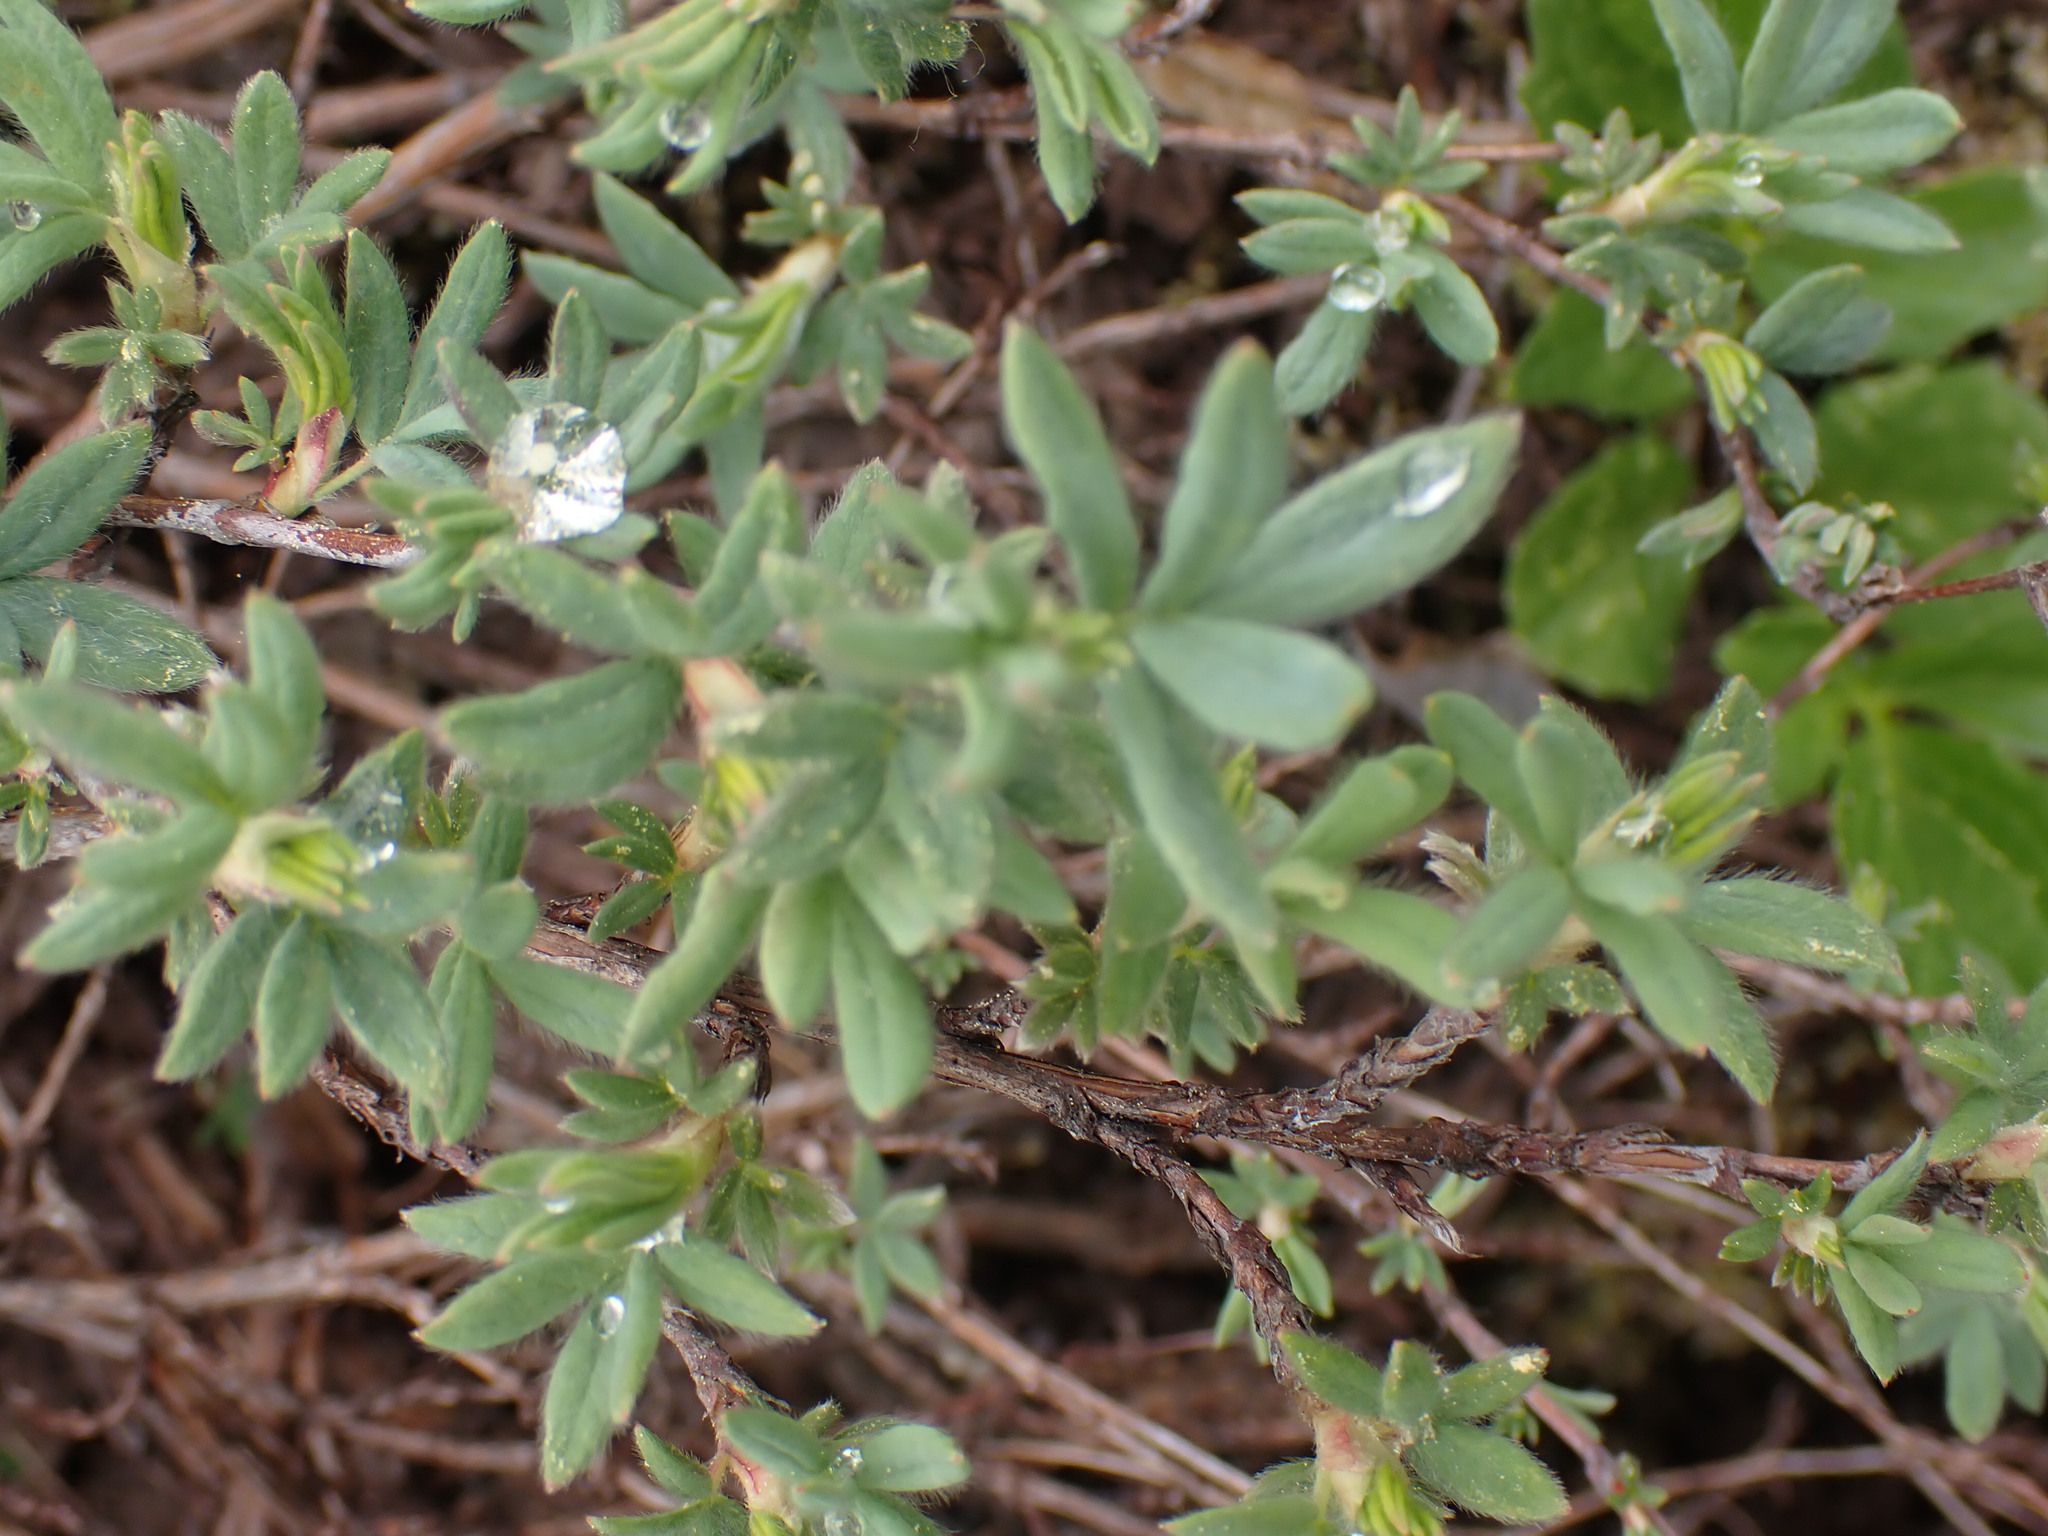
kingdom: Plantae
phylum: Tracheophyta
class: Magnoliopsida
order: Rosales
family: Rosaceae
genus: Dasiphora
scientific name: Dasiphora fruticosa
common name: Shrubby cinquefoil
